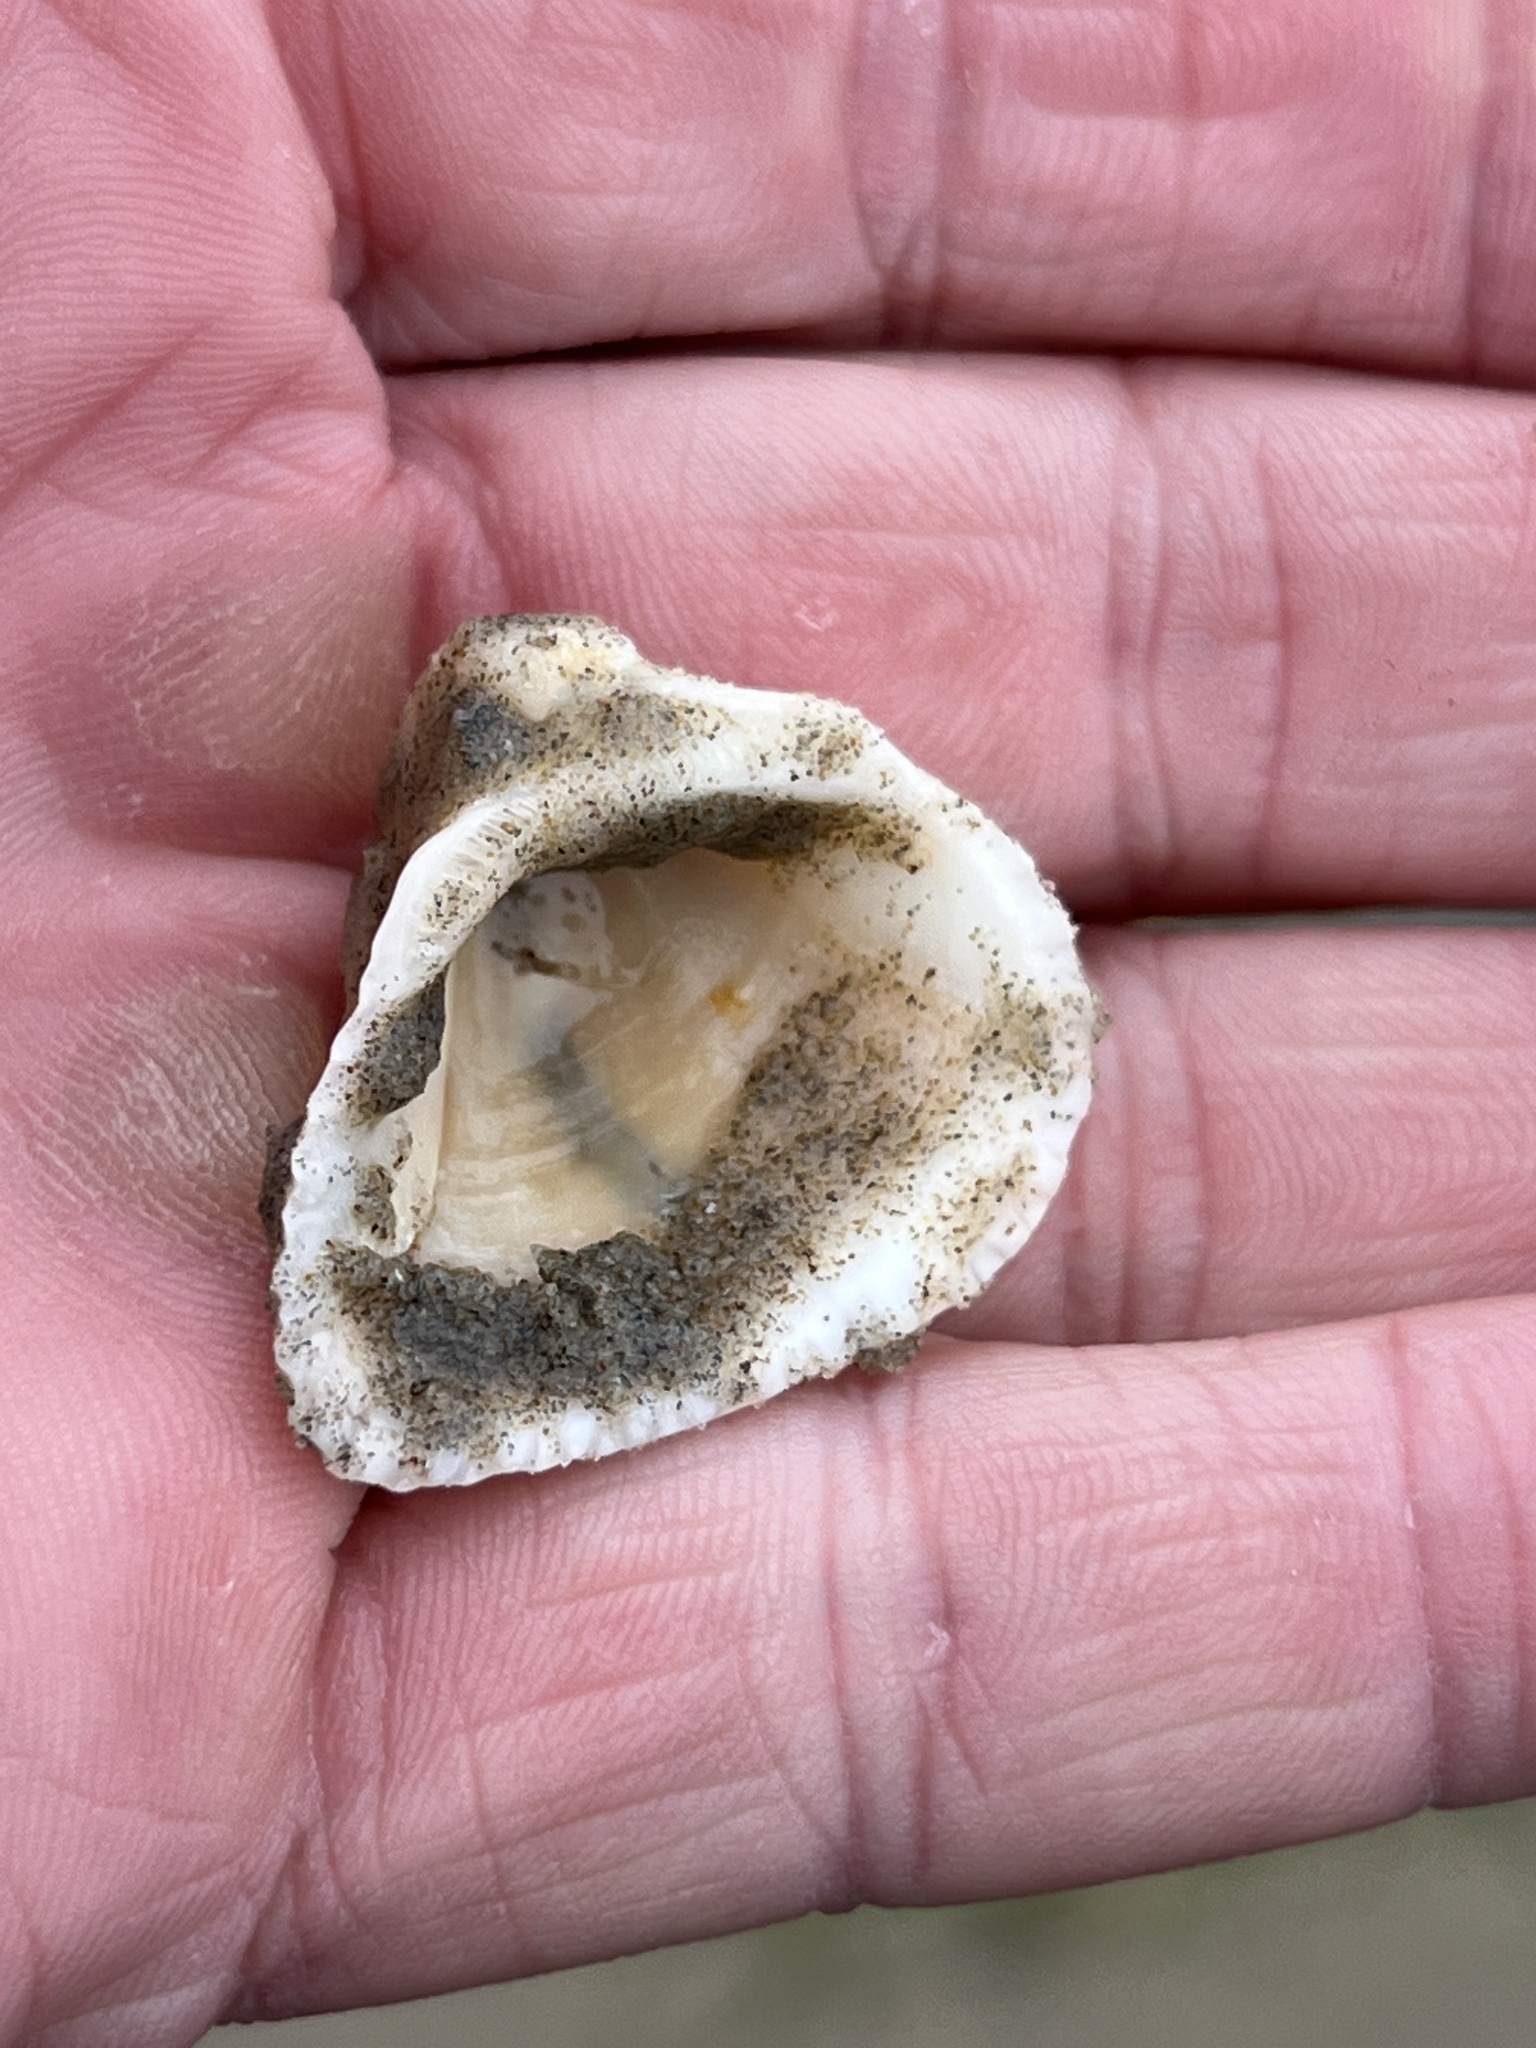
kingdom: Animalia
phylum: Mollusca
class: Bivalvia
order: Arcida
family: Noetiidae
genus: Noetia
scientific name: Noetia ponderosa
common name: Ponderous ark
